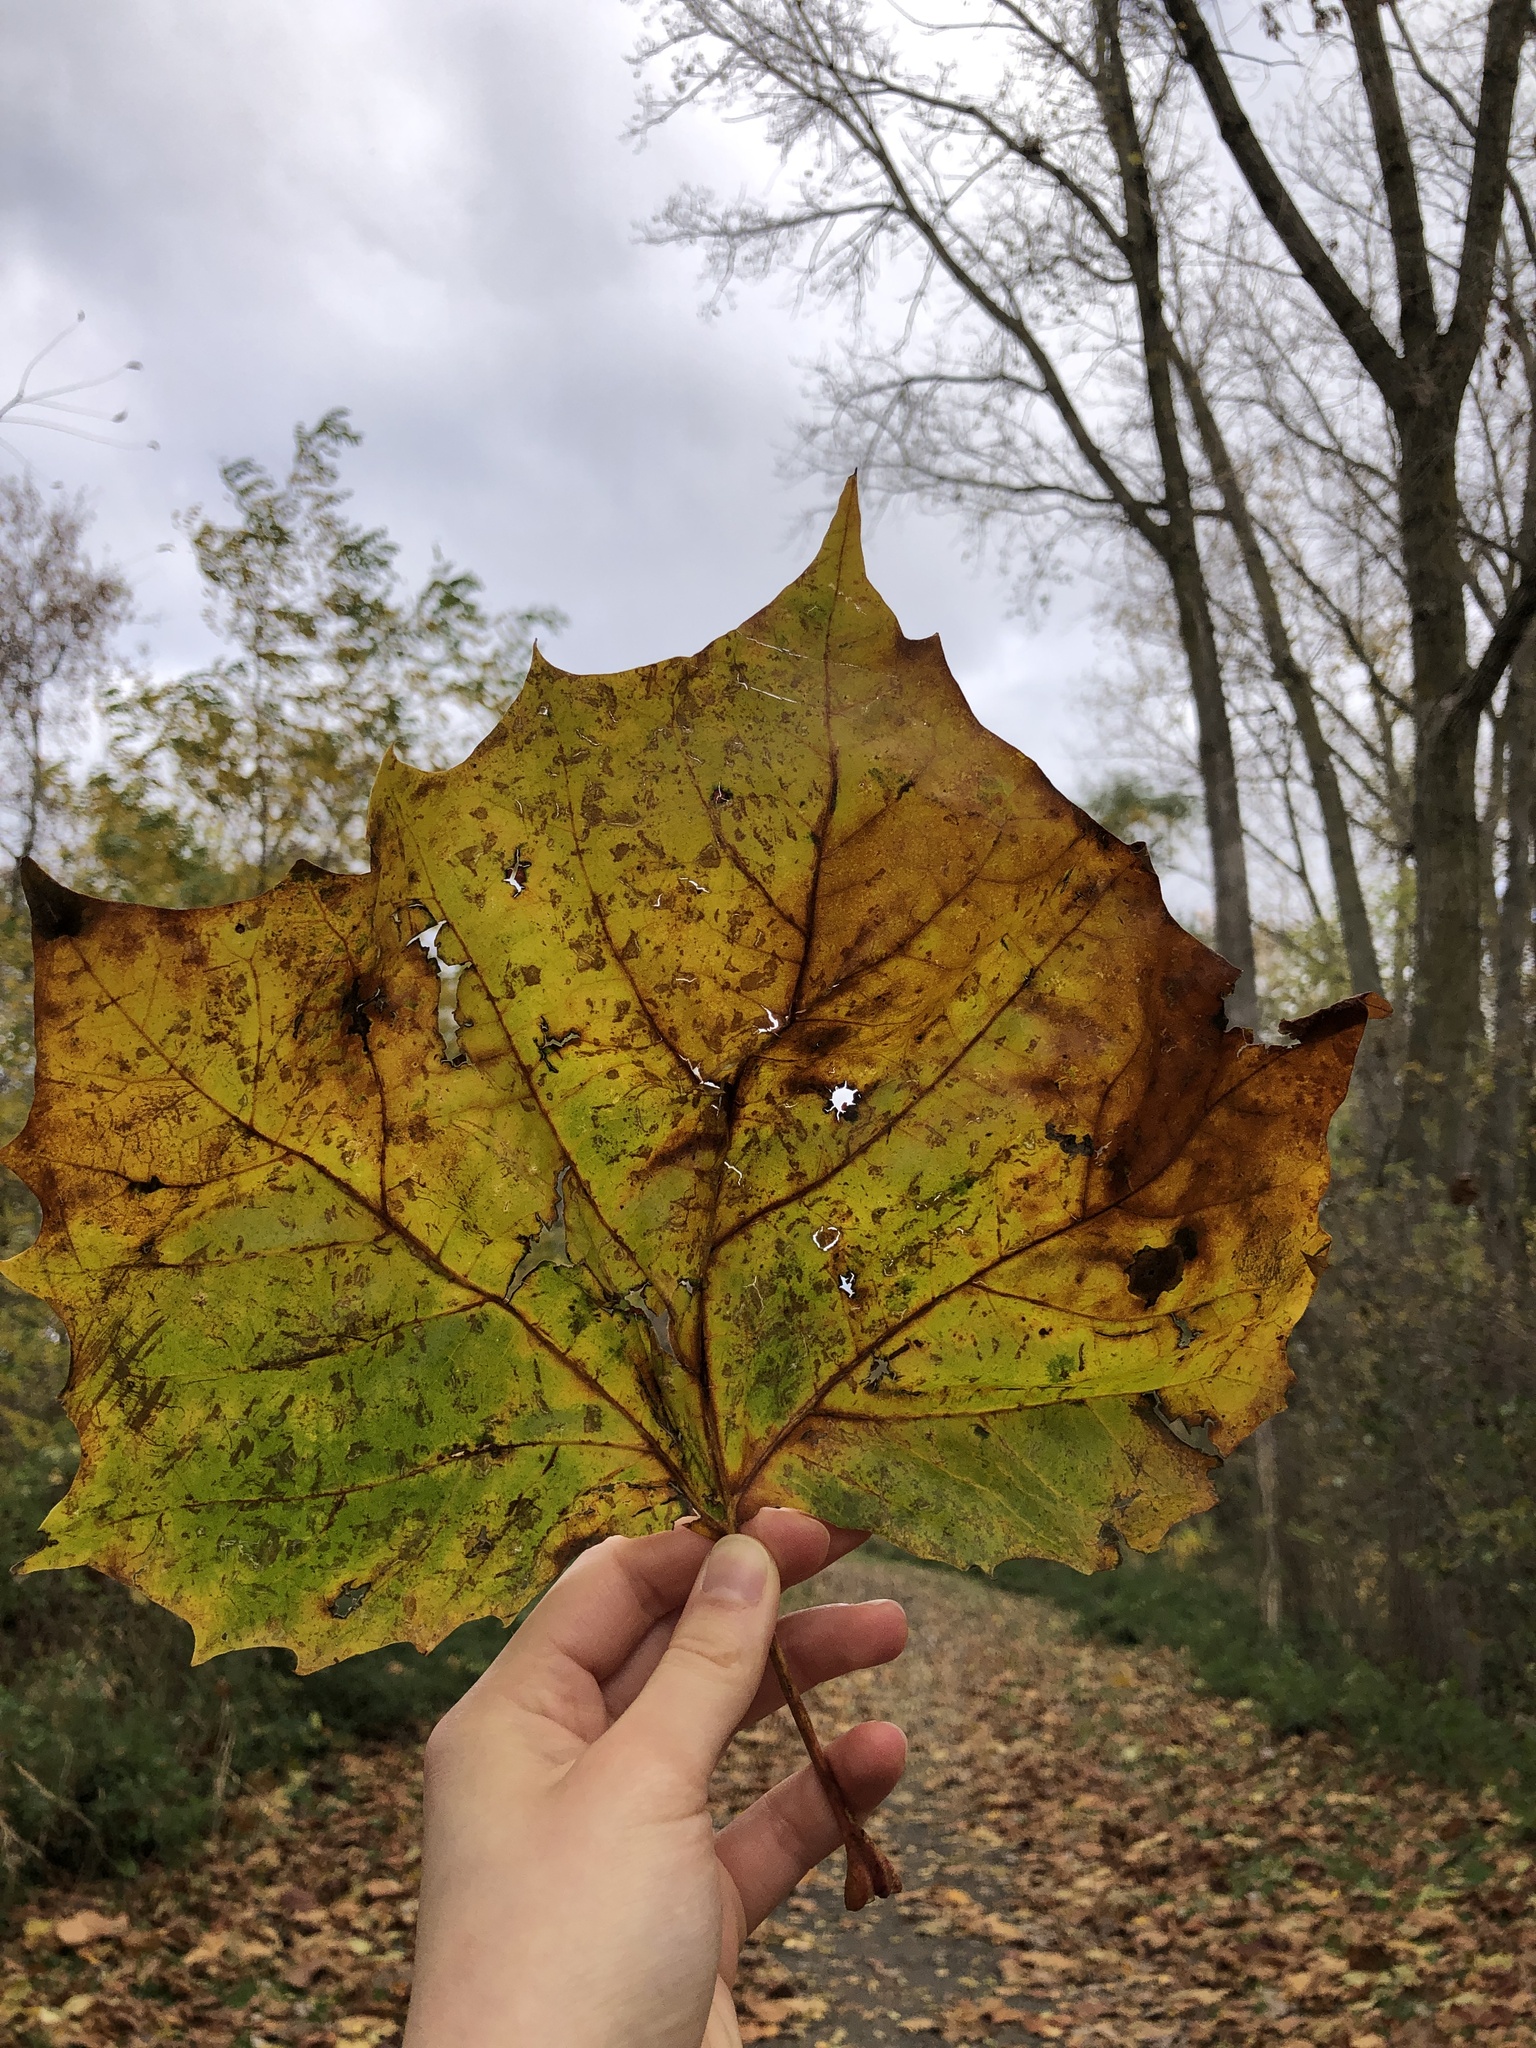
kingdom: Plantae
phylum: Tracheophyta
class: Magnoliopsida
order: Proteales
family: Platanaceae
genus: Platanus
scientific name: Platanus occidentalis
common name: American sycamore
